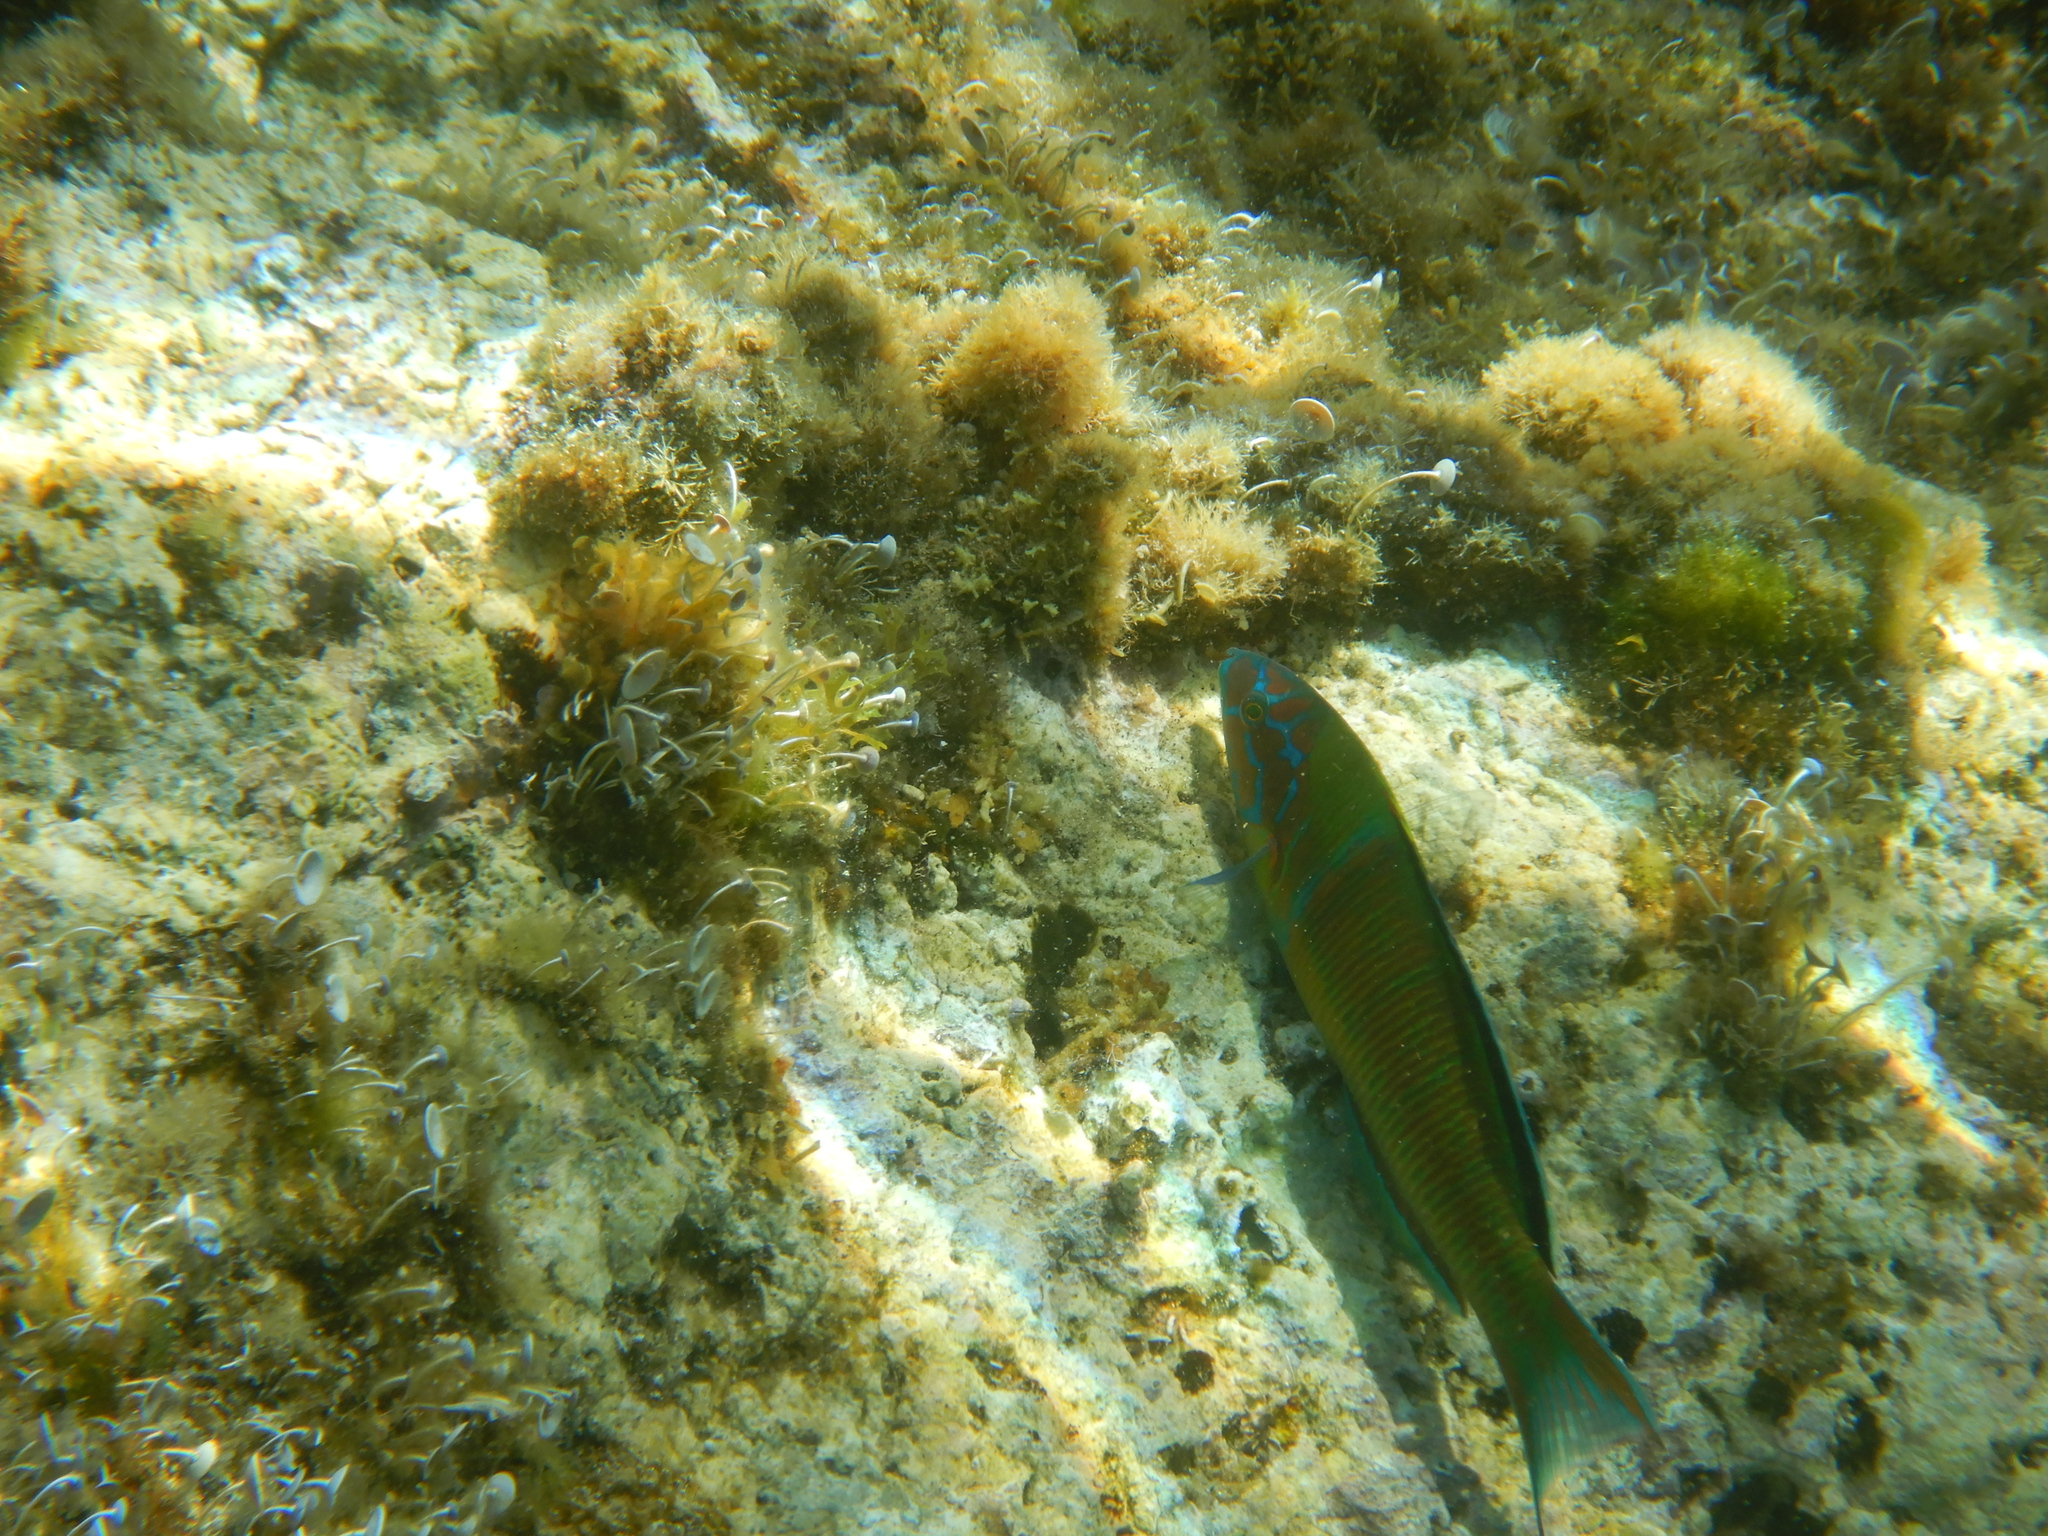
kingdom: Animalia
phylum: Chordata
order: Perciformes
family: Labridae
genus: Thalassoma
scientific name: Thalassoma pavo
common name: Ornate wrasse
